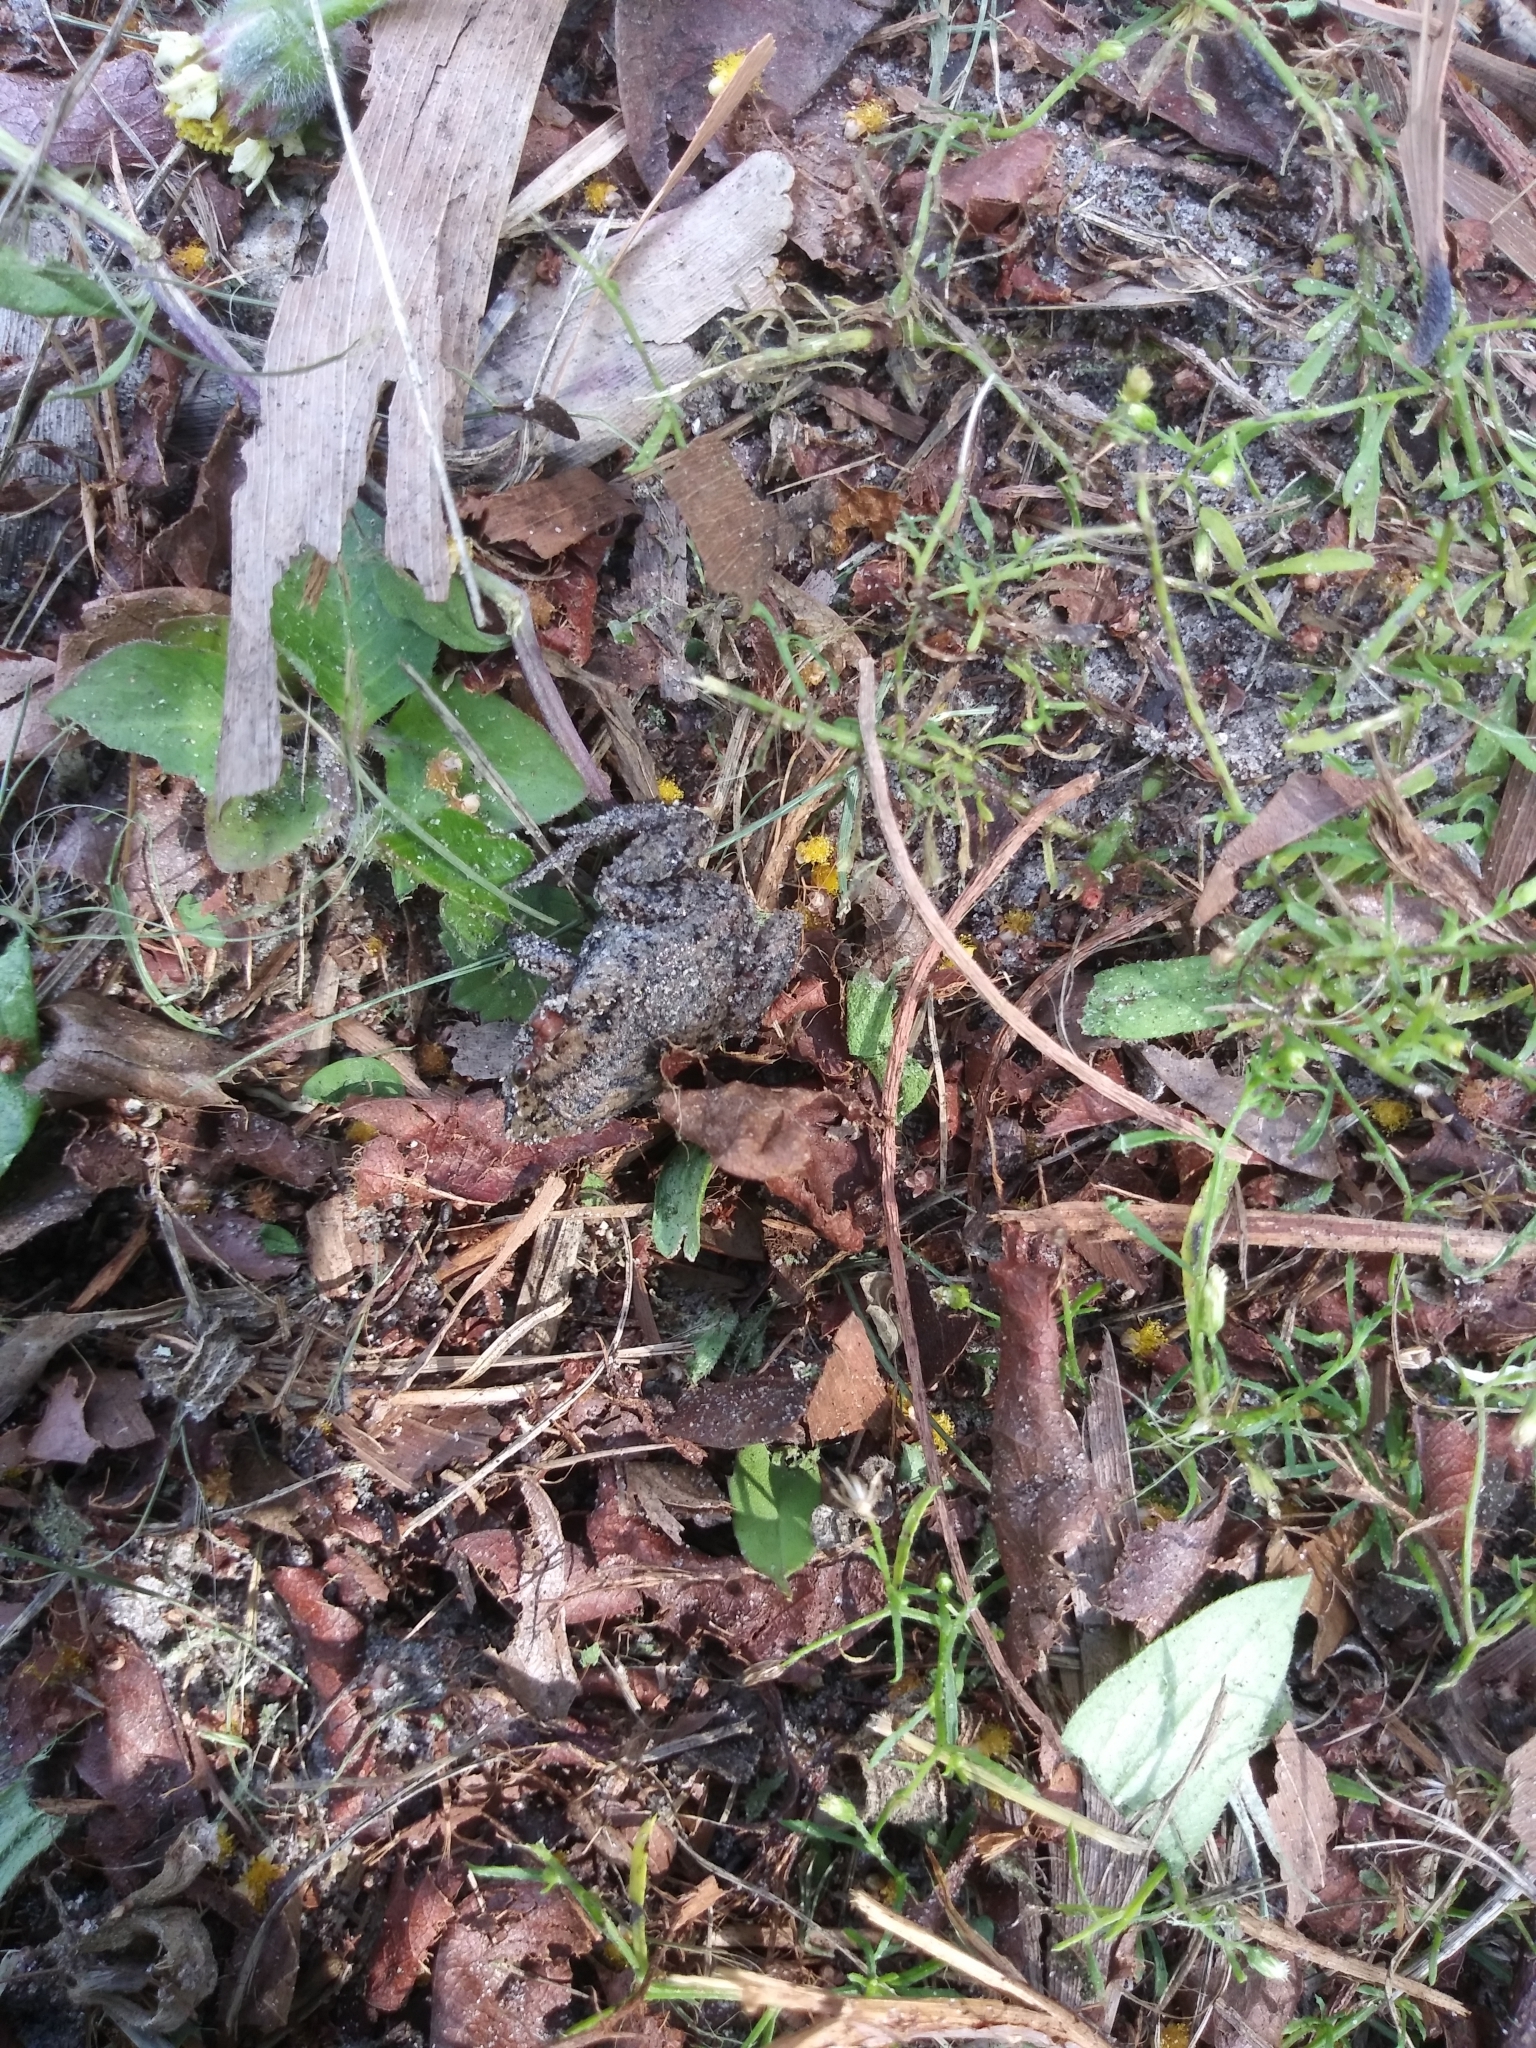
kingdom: Animalia
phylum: Chordata
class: Amphibia
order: Anura
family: Microhylidae
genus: Gastrophryne
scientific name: Gastrophryne carolinensis
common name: Eastern narrowmouth toad
